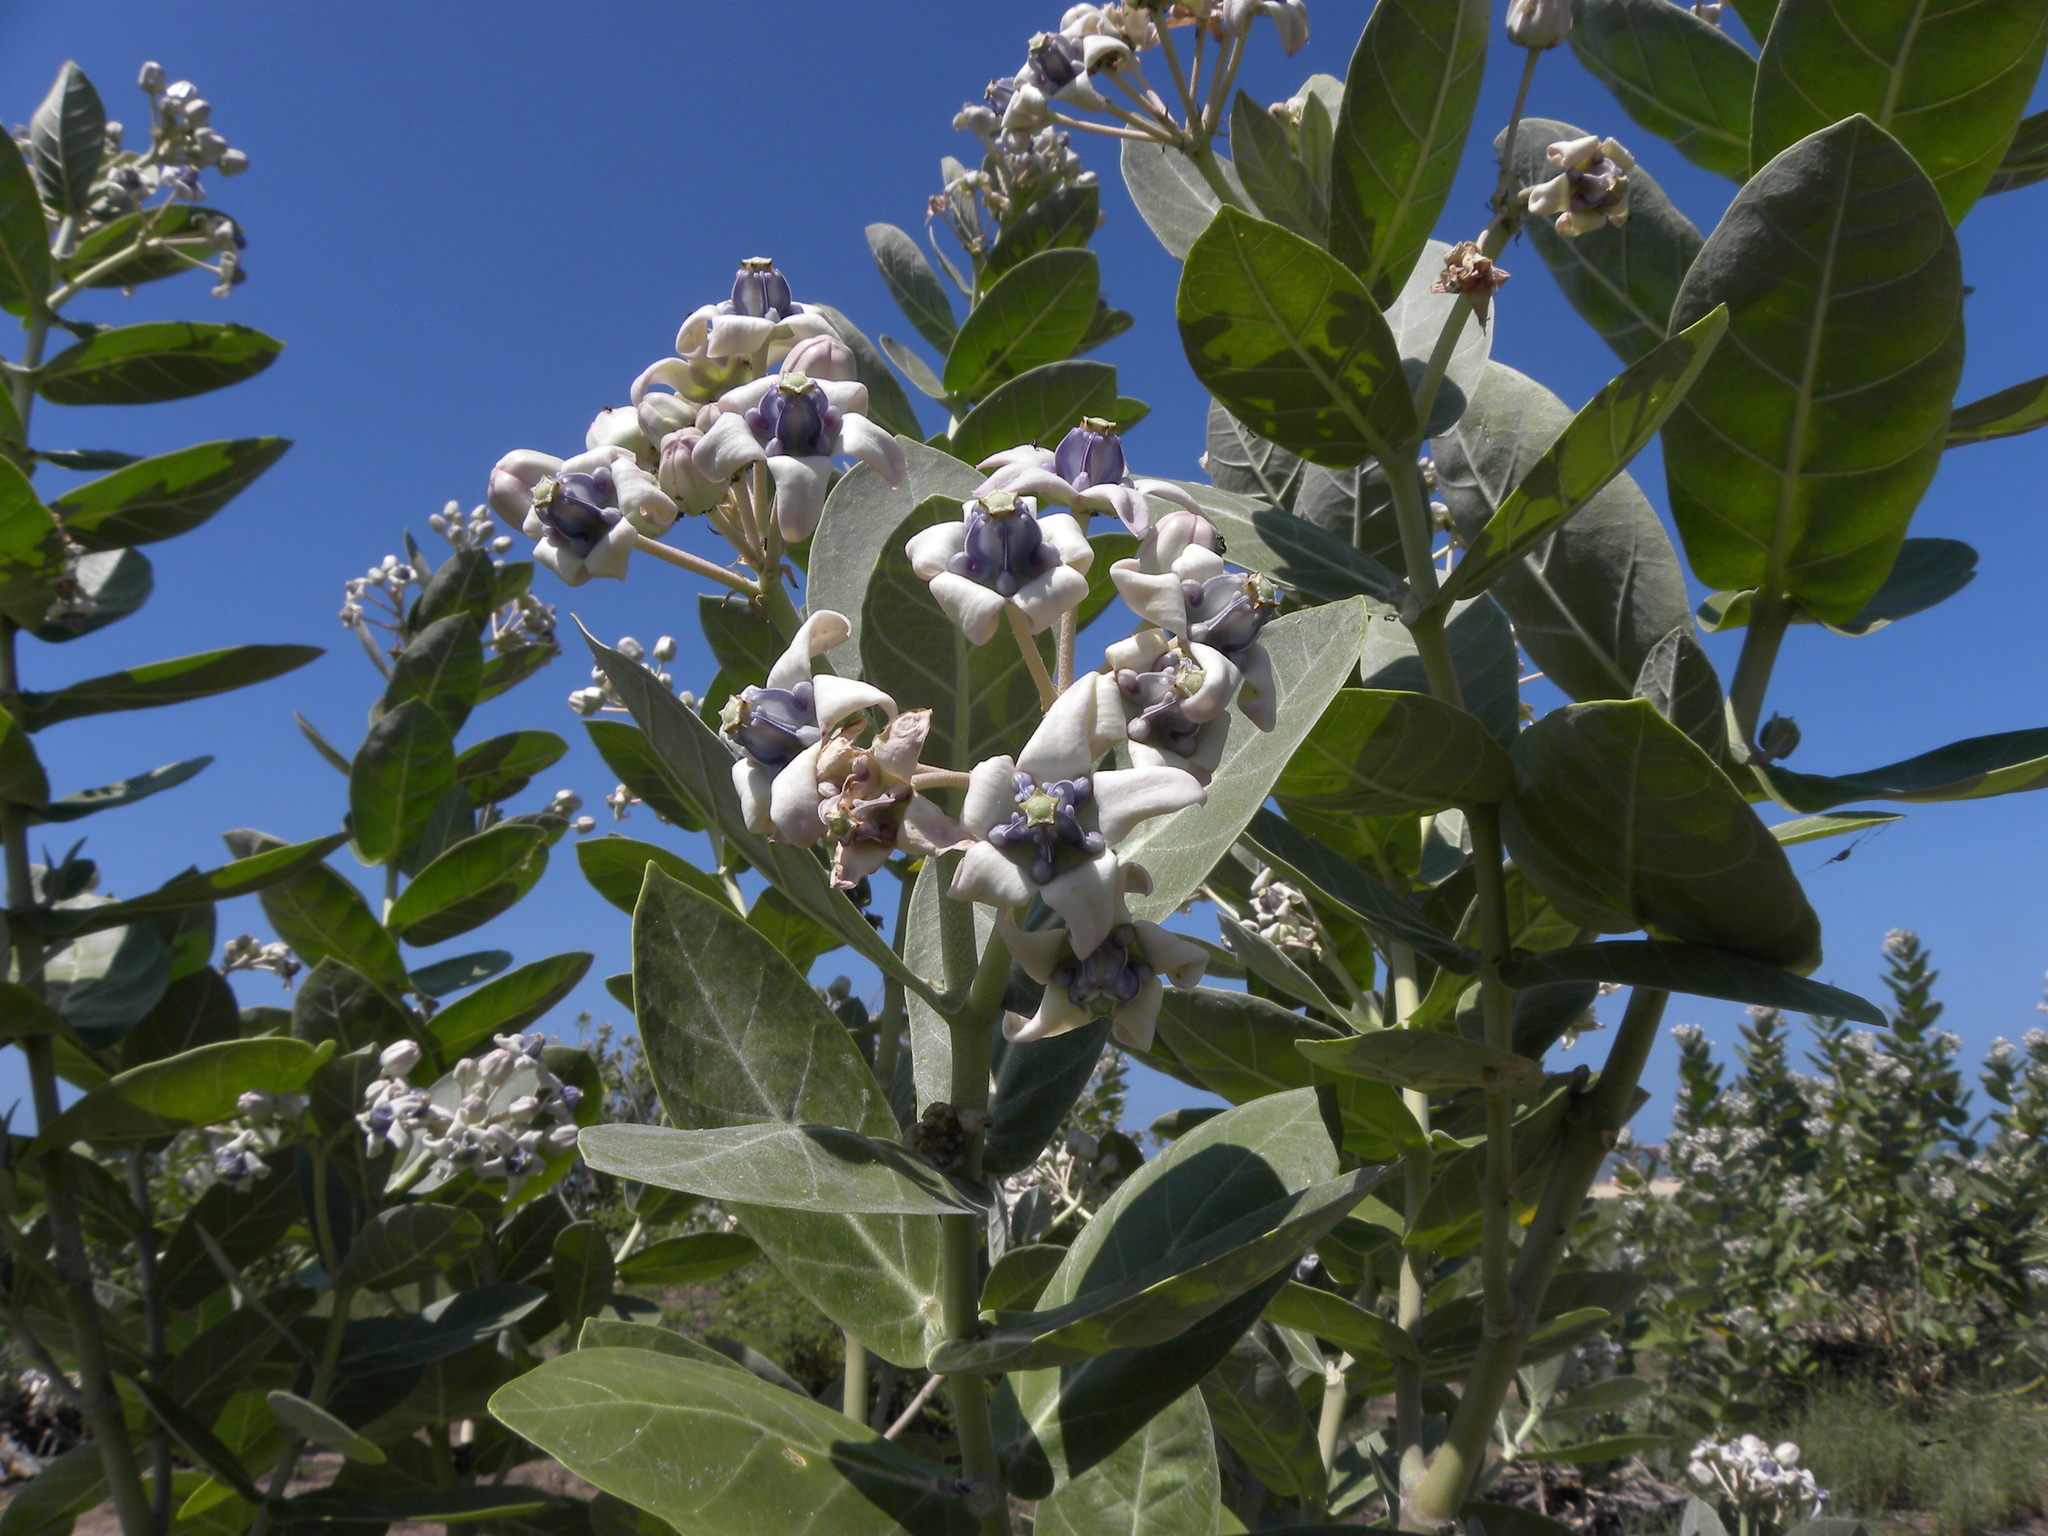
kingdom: Plantae
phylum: Tracheophyta
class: Magnoliopsida
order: Gentianales
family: Apocynaceae
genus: Calotropis
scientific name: Calotropis gigantea
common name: Crown flower
